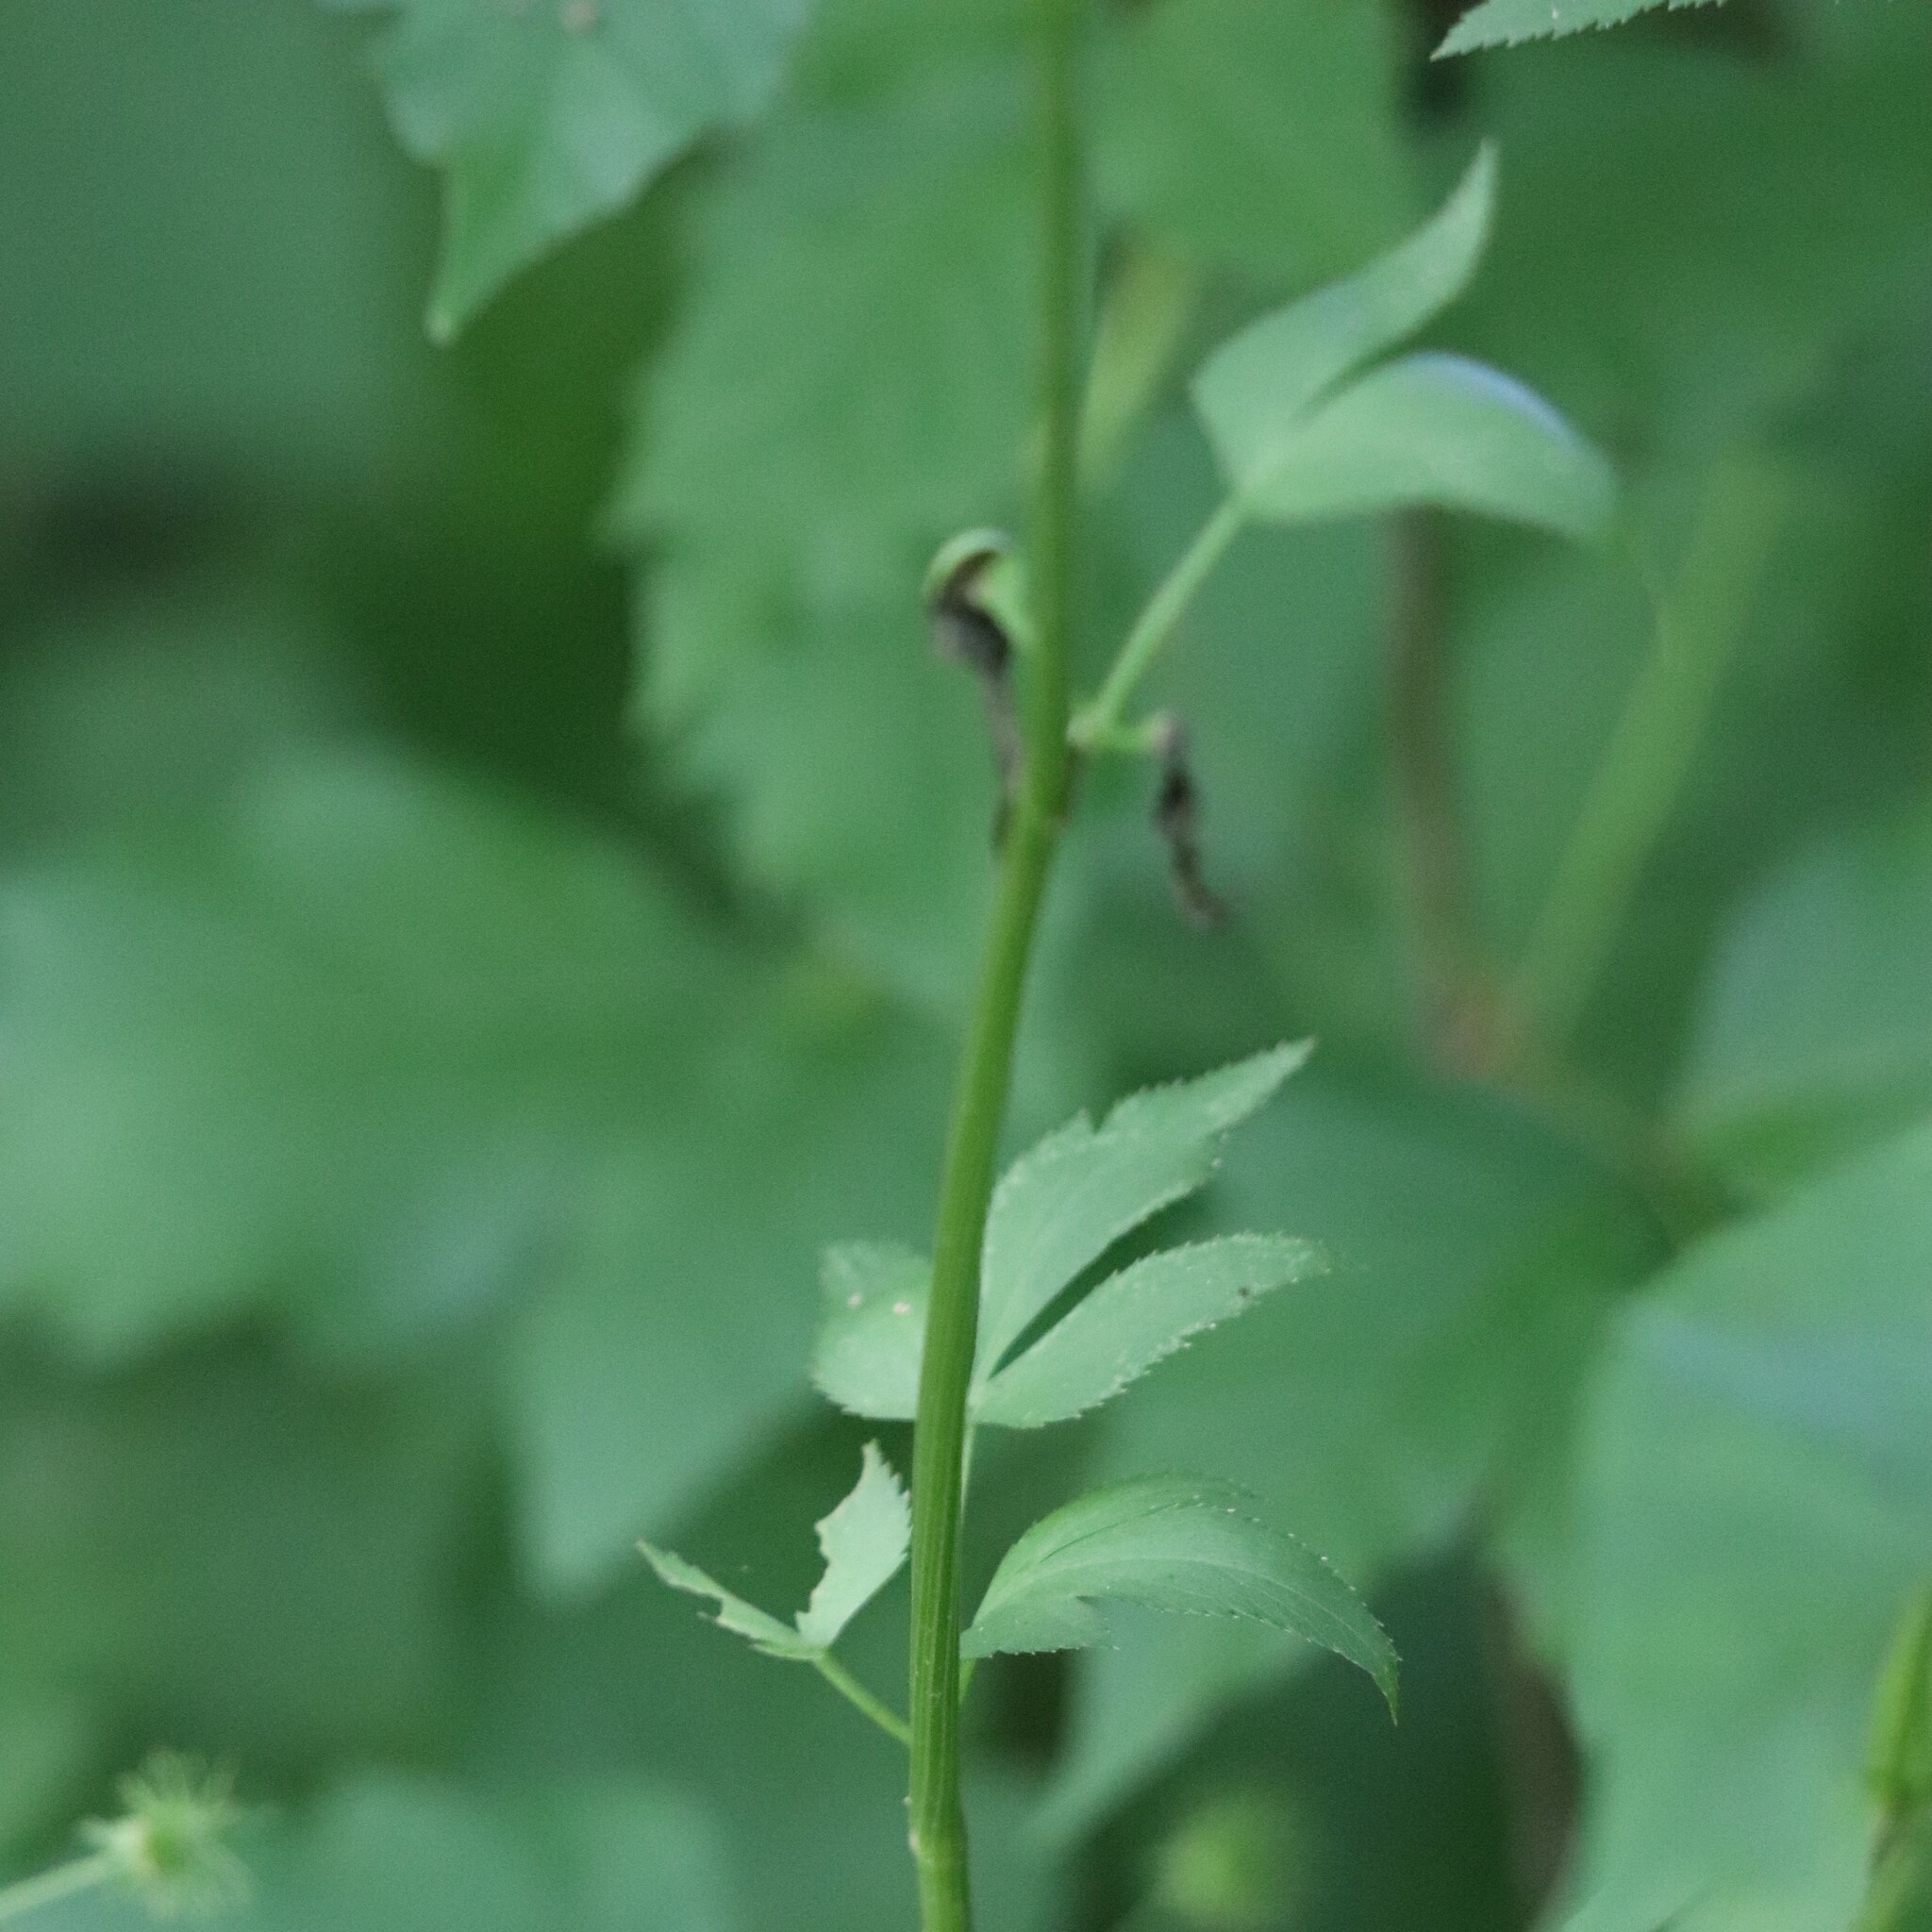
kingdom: Plantae
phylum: Tracheophyta
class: Magnoliopsida
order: Apiales
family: Apiaceae
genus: Zizia
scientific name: Zizia aurea
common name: Golden alexanders
